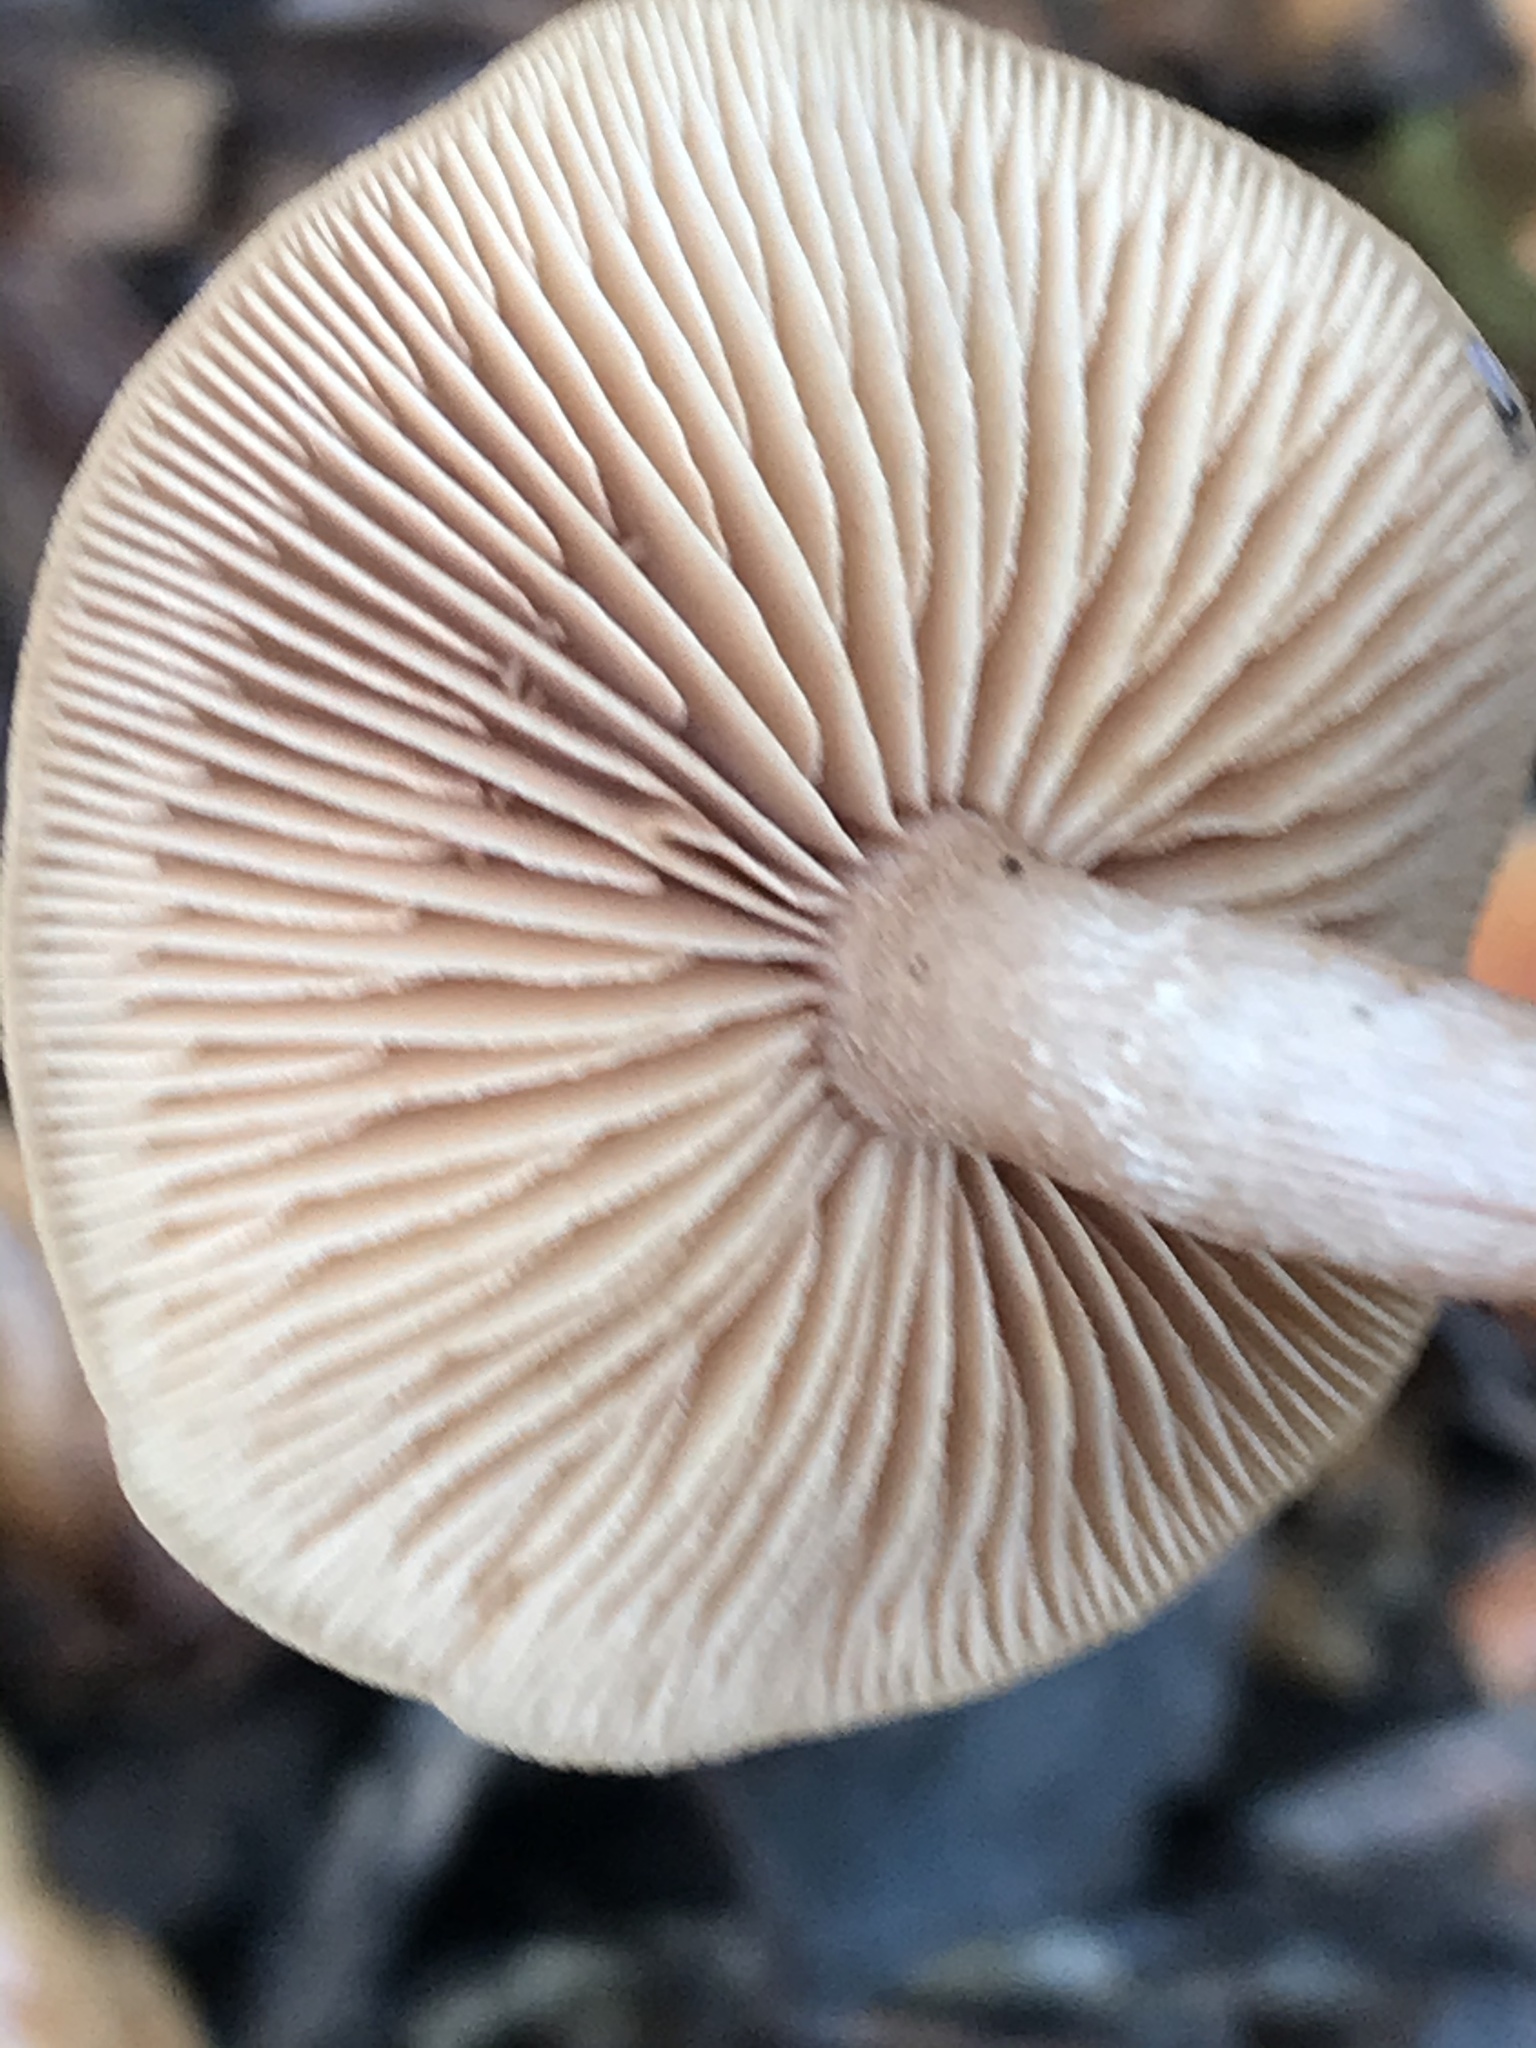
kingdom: Fungi
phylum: Basidiomycota
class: Agaricomycetes
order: Agaricales
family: Tubariaceae
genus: Tubaria
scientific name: Tubaria furfuracea
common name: Scurfy twiglet
